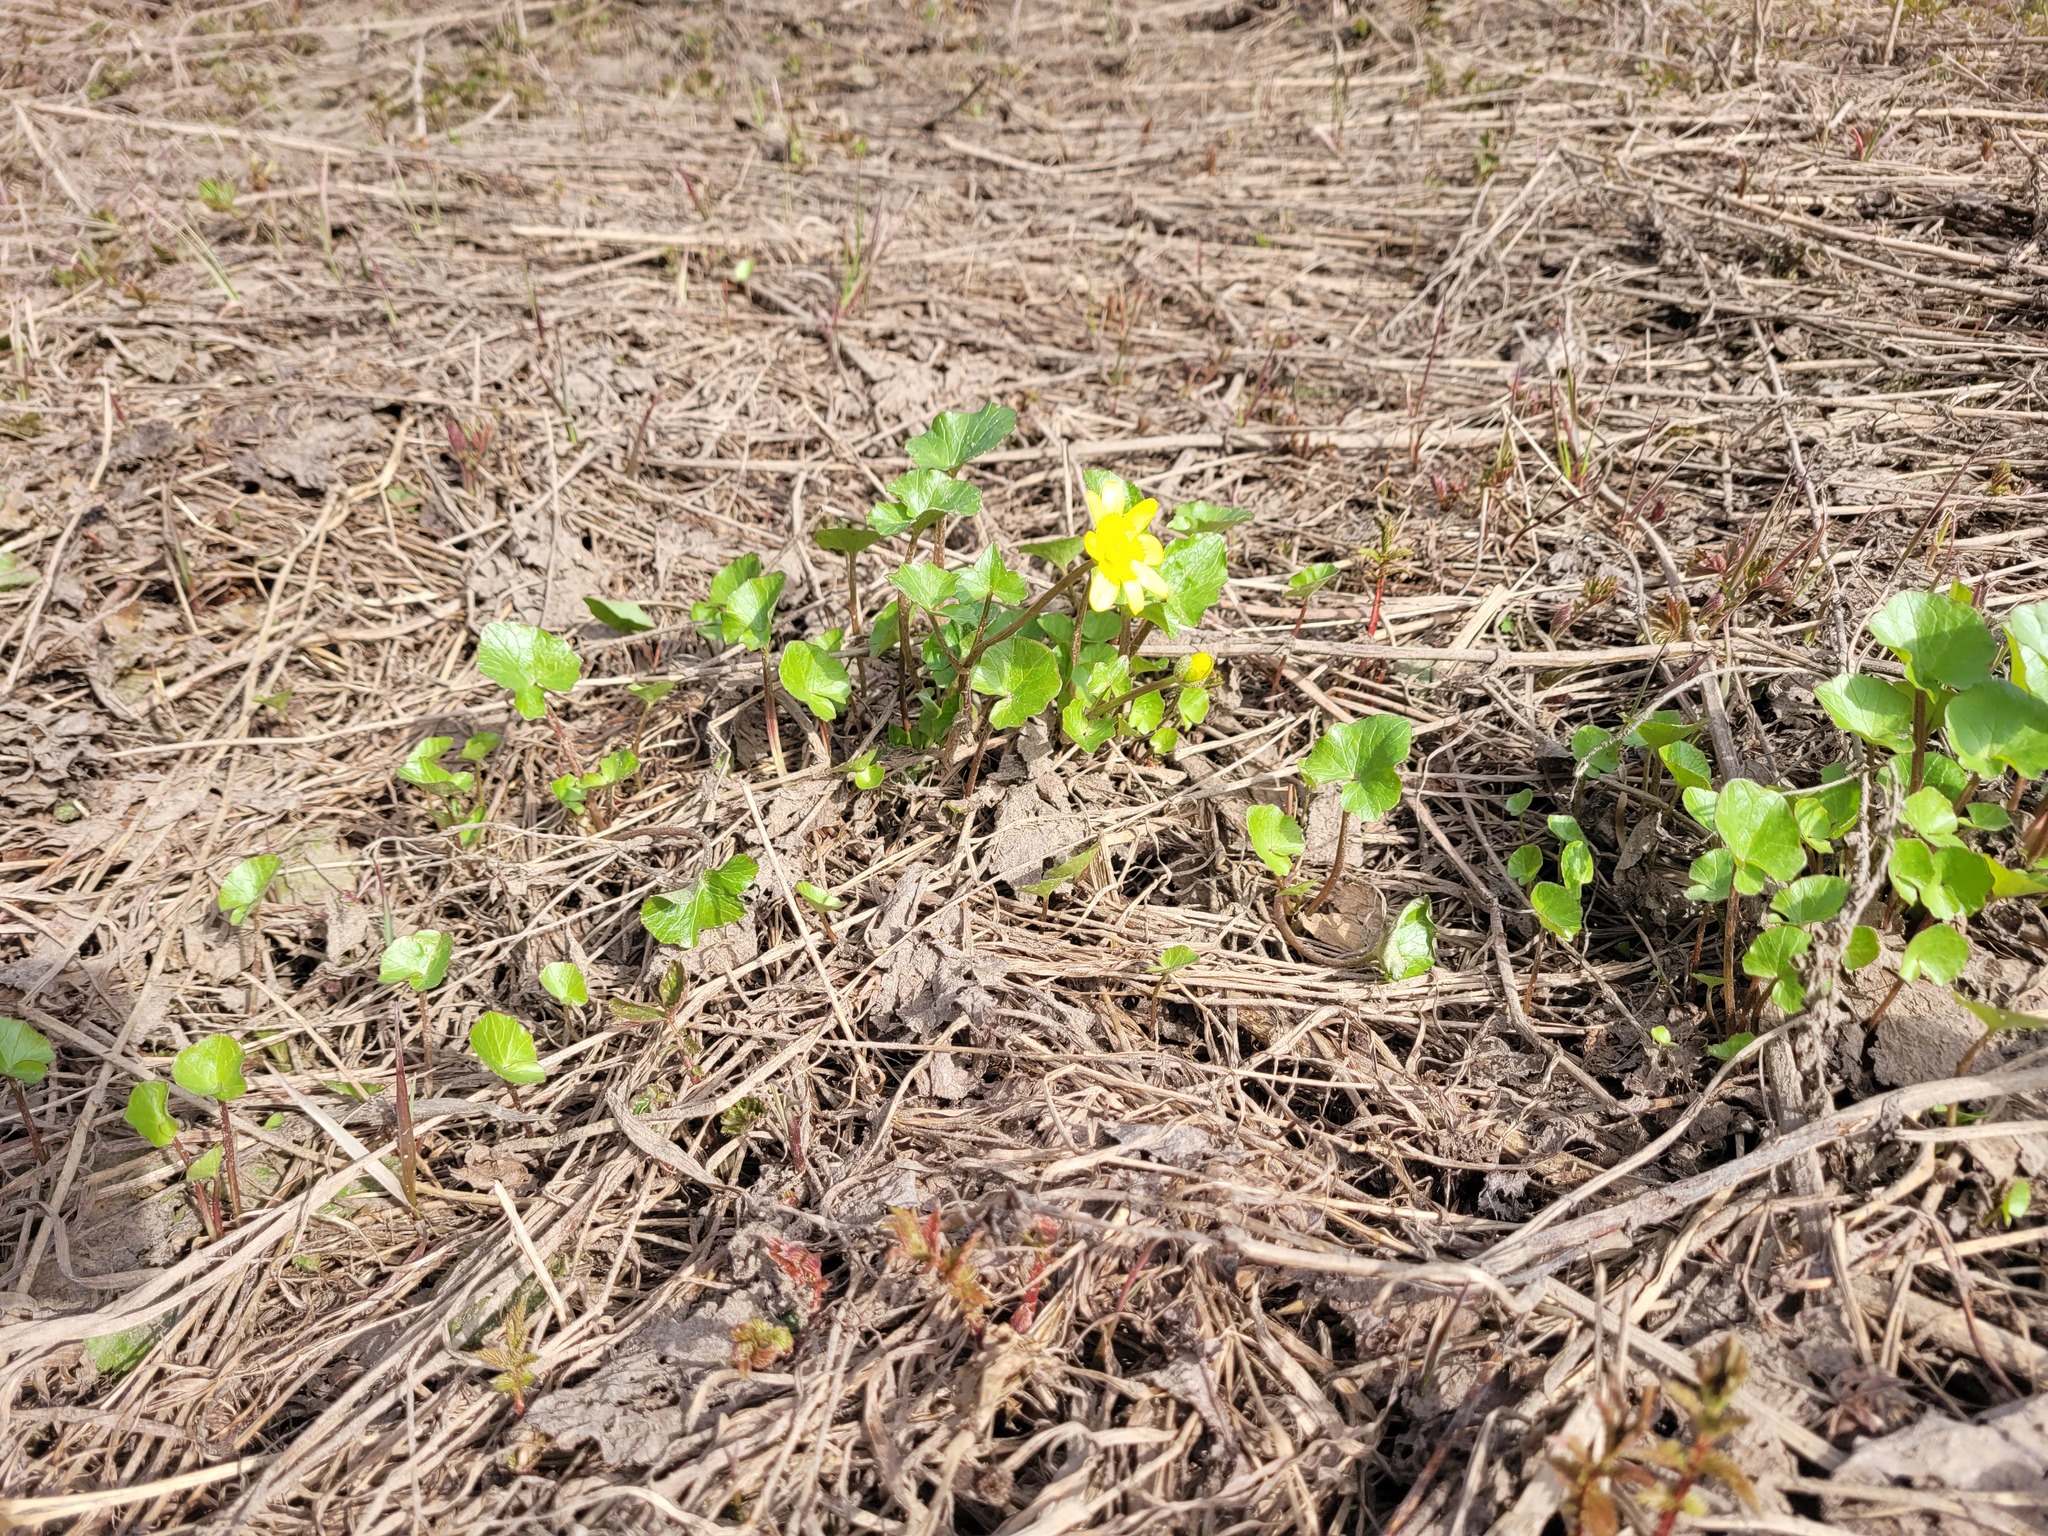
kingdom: Plantae
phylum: Tracheophyta
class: Magnoliopsida
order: Ranunculales
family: Ranunculaceae
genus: Ficaria
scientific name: Ficaria verna
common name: Lesser celandine
